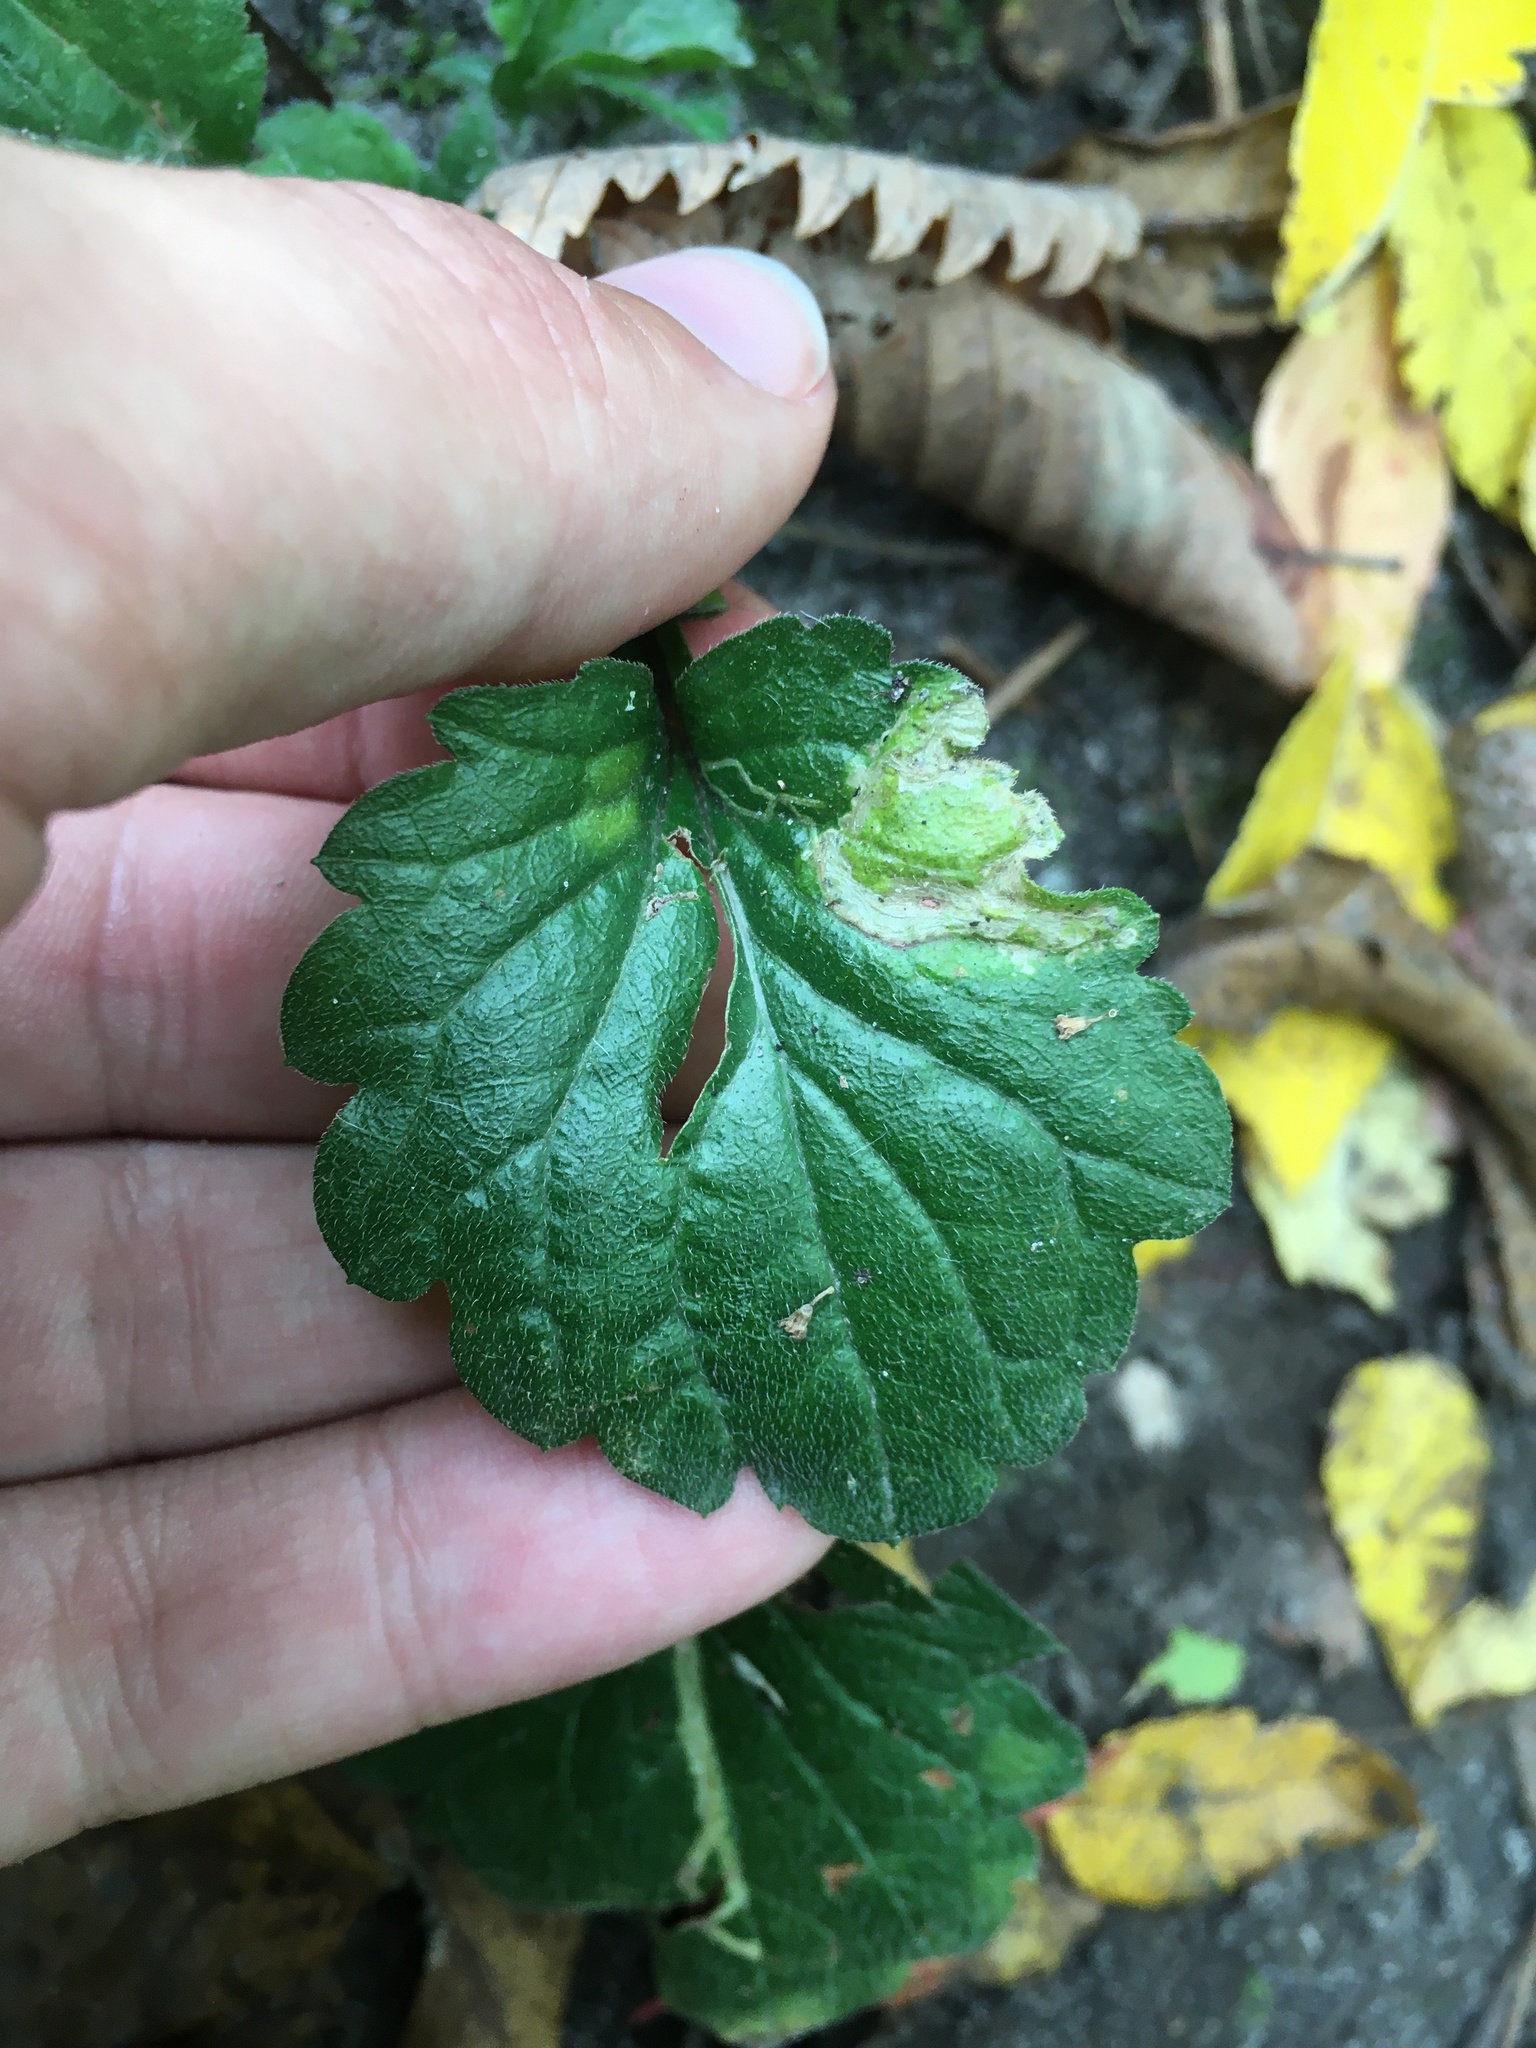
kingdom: Animalia
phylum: Arthropoda
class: Insecta
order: Lepidoptera
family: Gracillariidae
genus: Parectopa
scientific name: Parectopa plantaginisella
